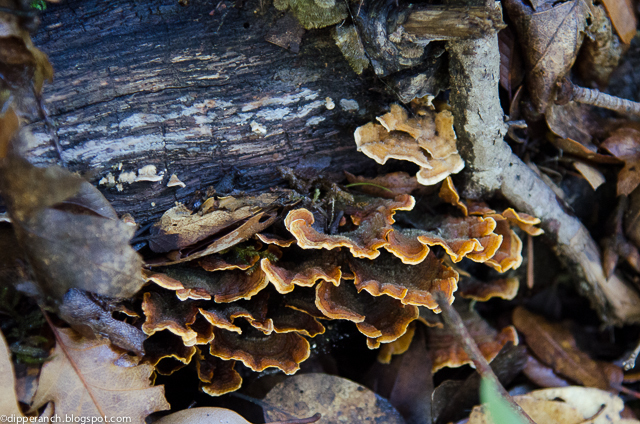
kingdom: Fungi
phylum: Basidiomycota
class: Agaricomycetes
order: Russulales
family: Stereaceae
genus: Stereum
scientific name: Stereum hirsutum
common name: Hairy curtain crust
